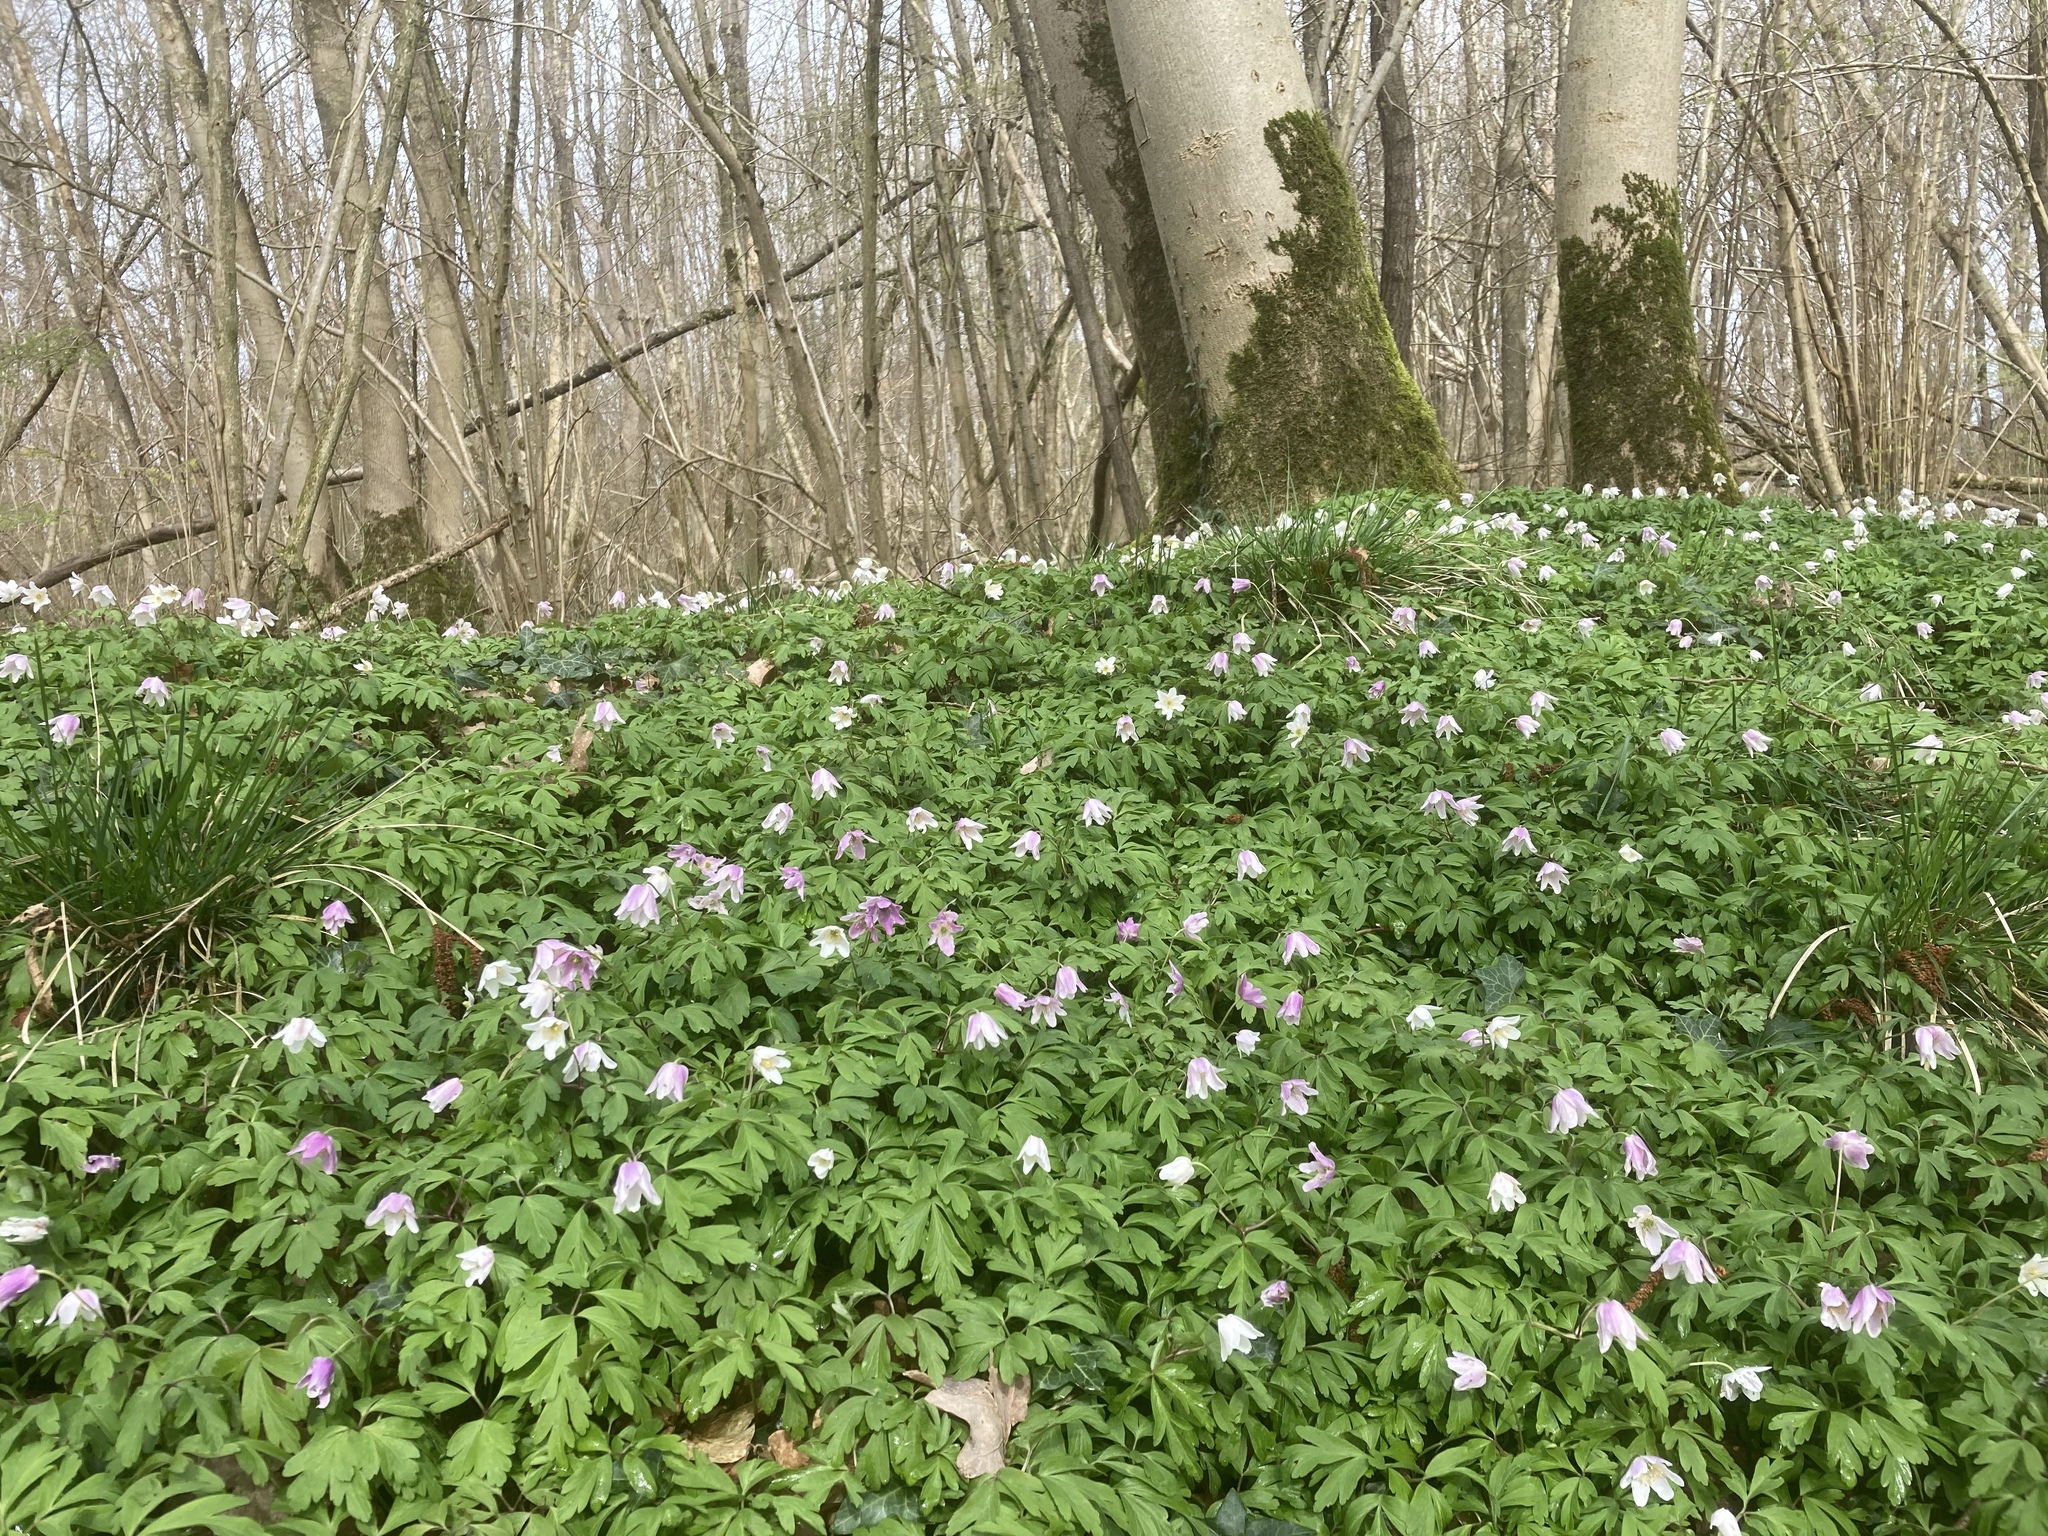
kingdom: Plantae
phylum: Tracheophyta
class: Magnoliopsida
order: Ranunculales
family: Ranunculaceae
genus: Anemone
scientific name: Anemone nemorosa
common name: Wood anemone
